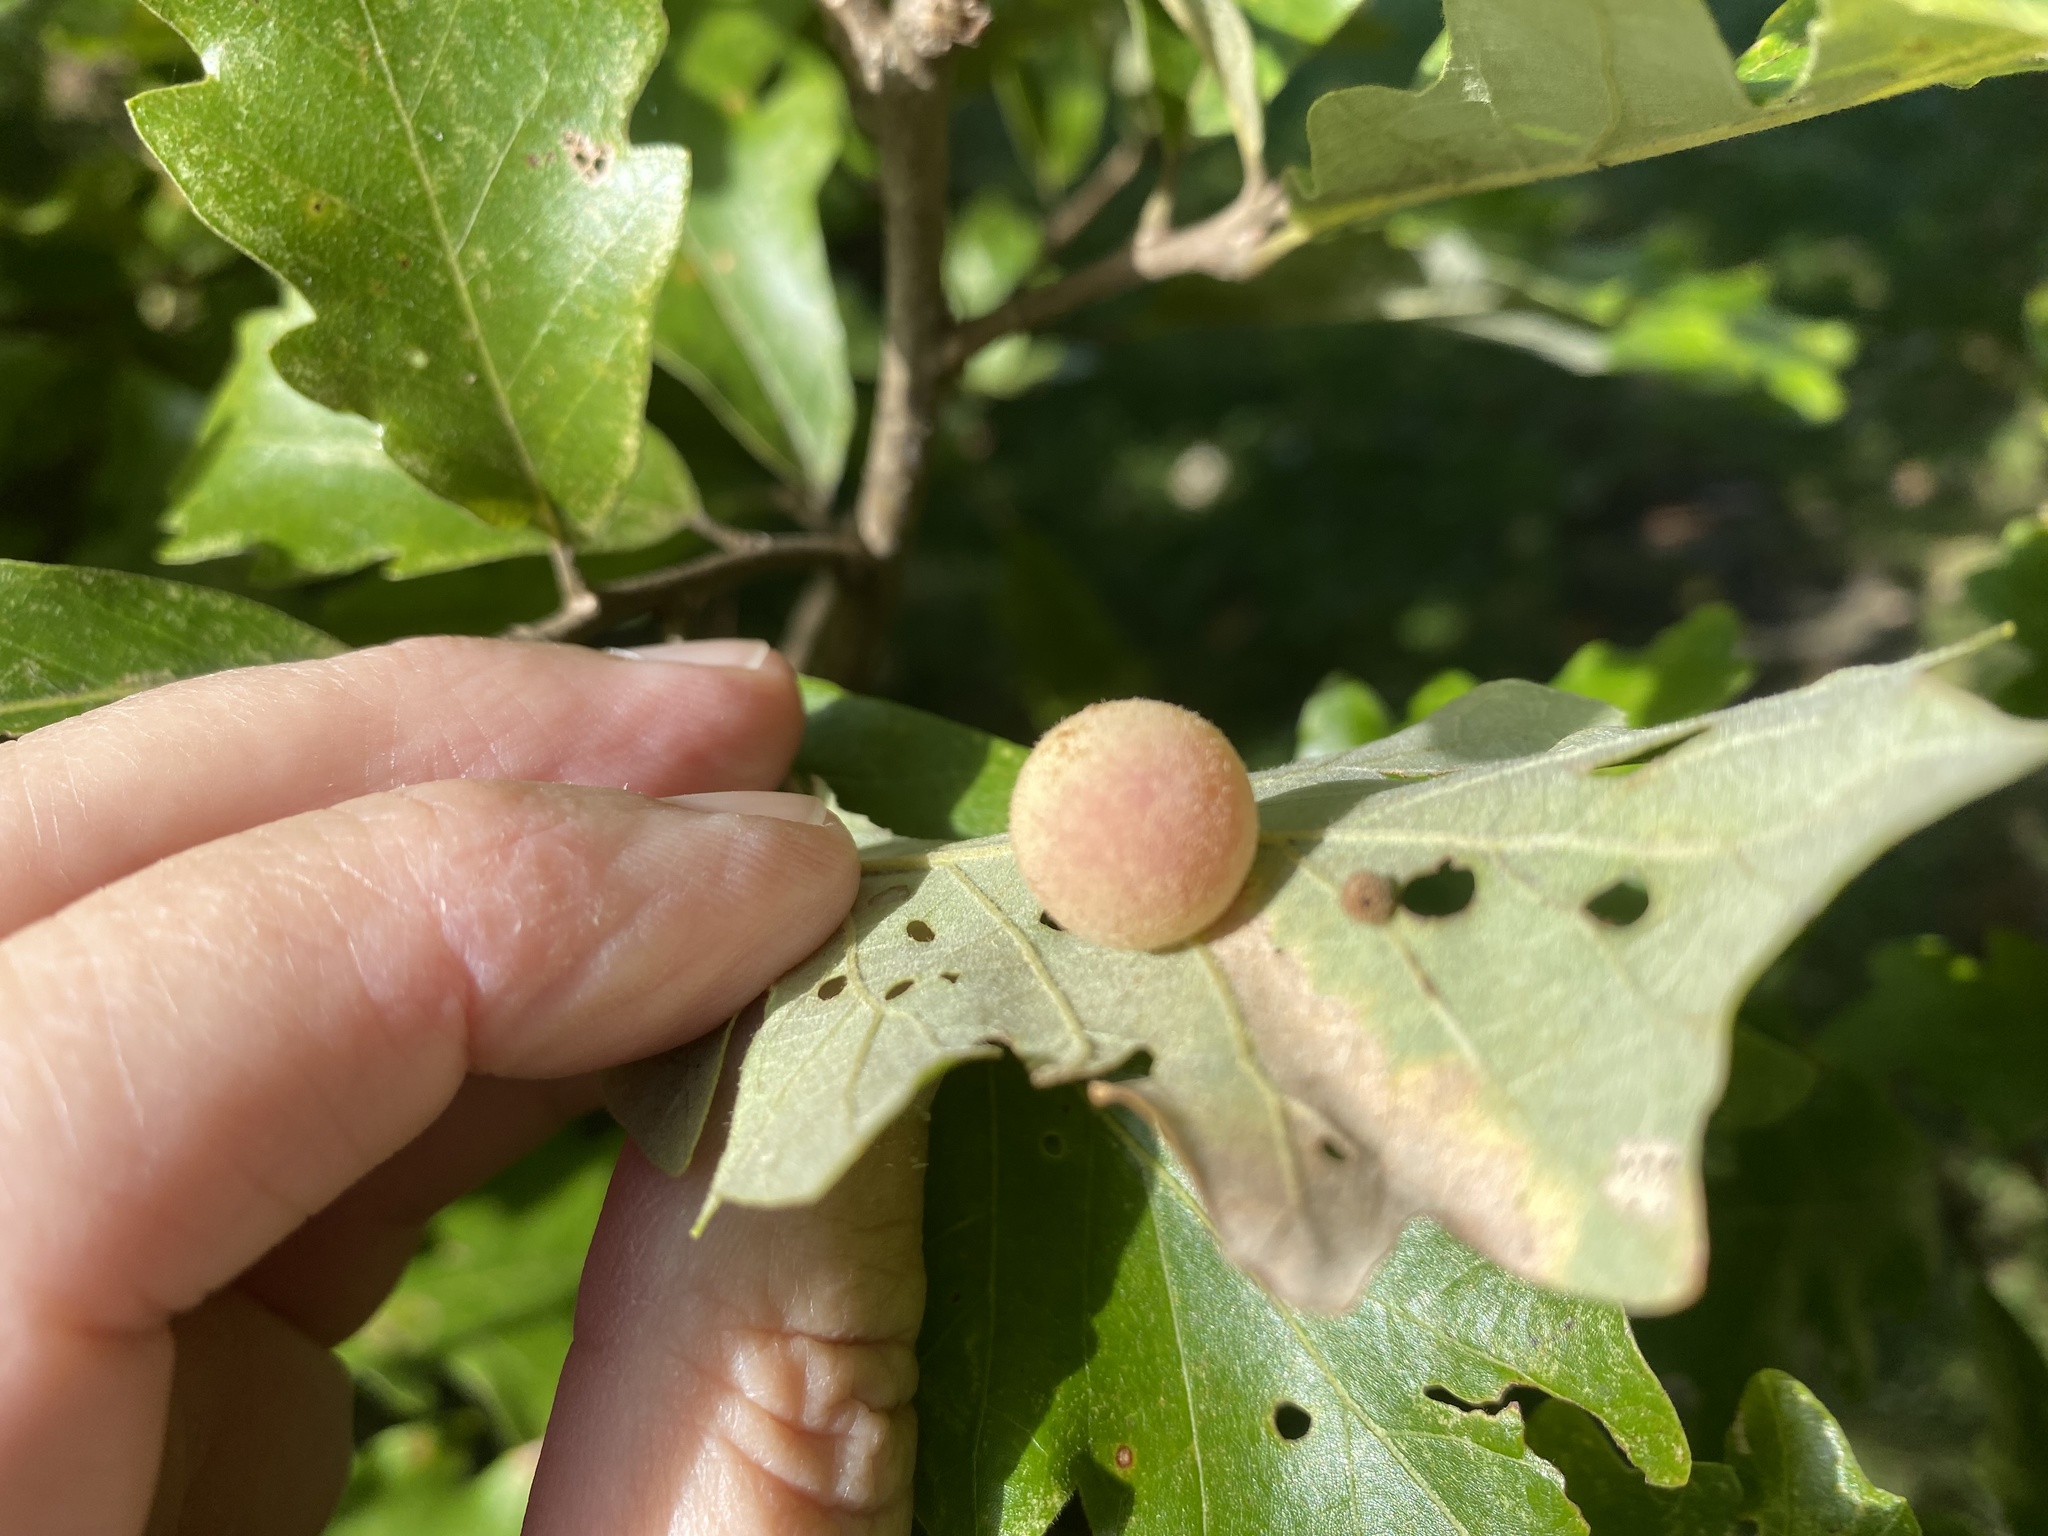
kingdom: Animalia
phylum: Arthropoda
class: Insecta
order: Hymenoptera
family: Cynipidae
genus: Philonix
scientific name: Philonix fulvicollis
